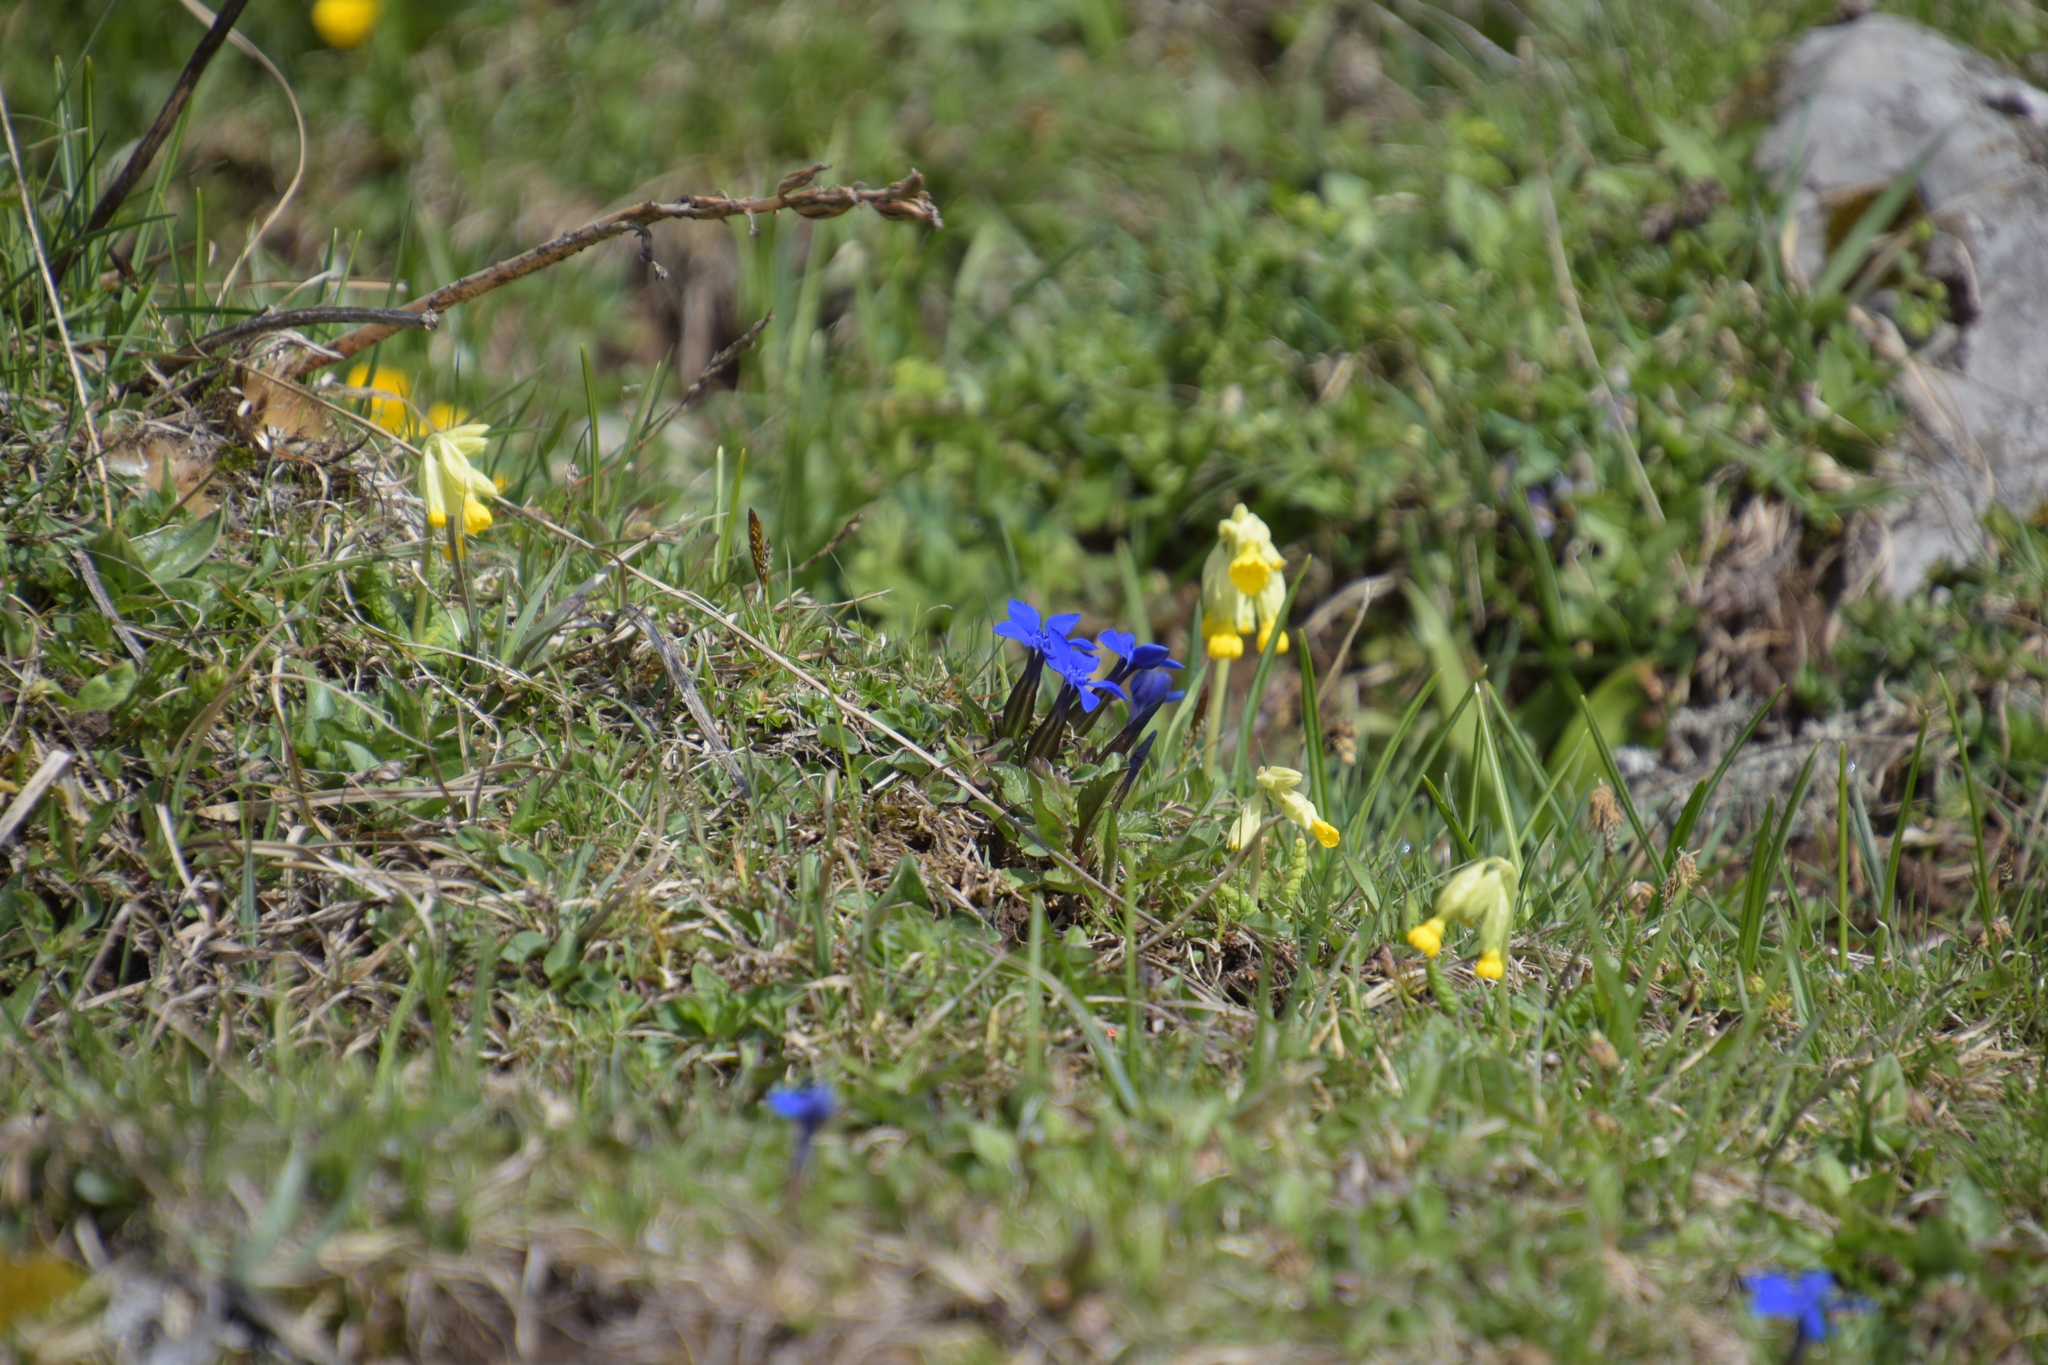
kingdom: Plantae
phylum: Tracheophyta
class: Magnoliopsida
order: Gentianales
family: Gentianaceae
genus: Gentiana
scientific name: Gentiana verna
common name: Spring gentian
